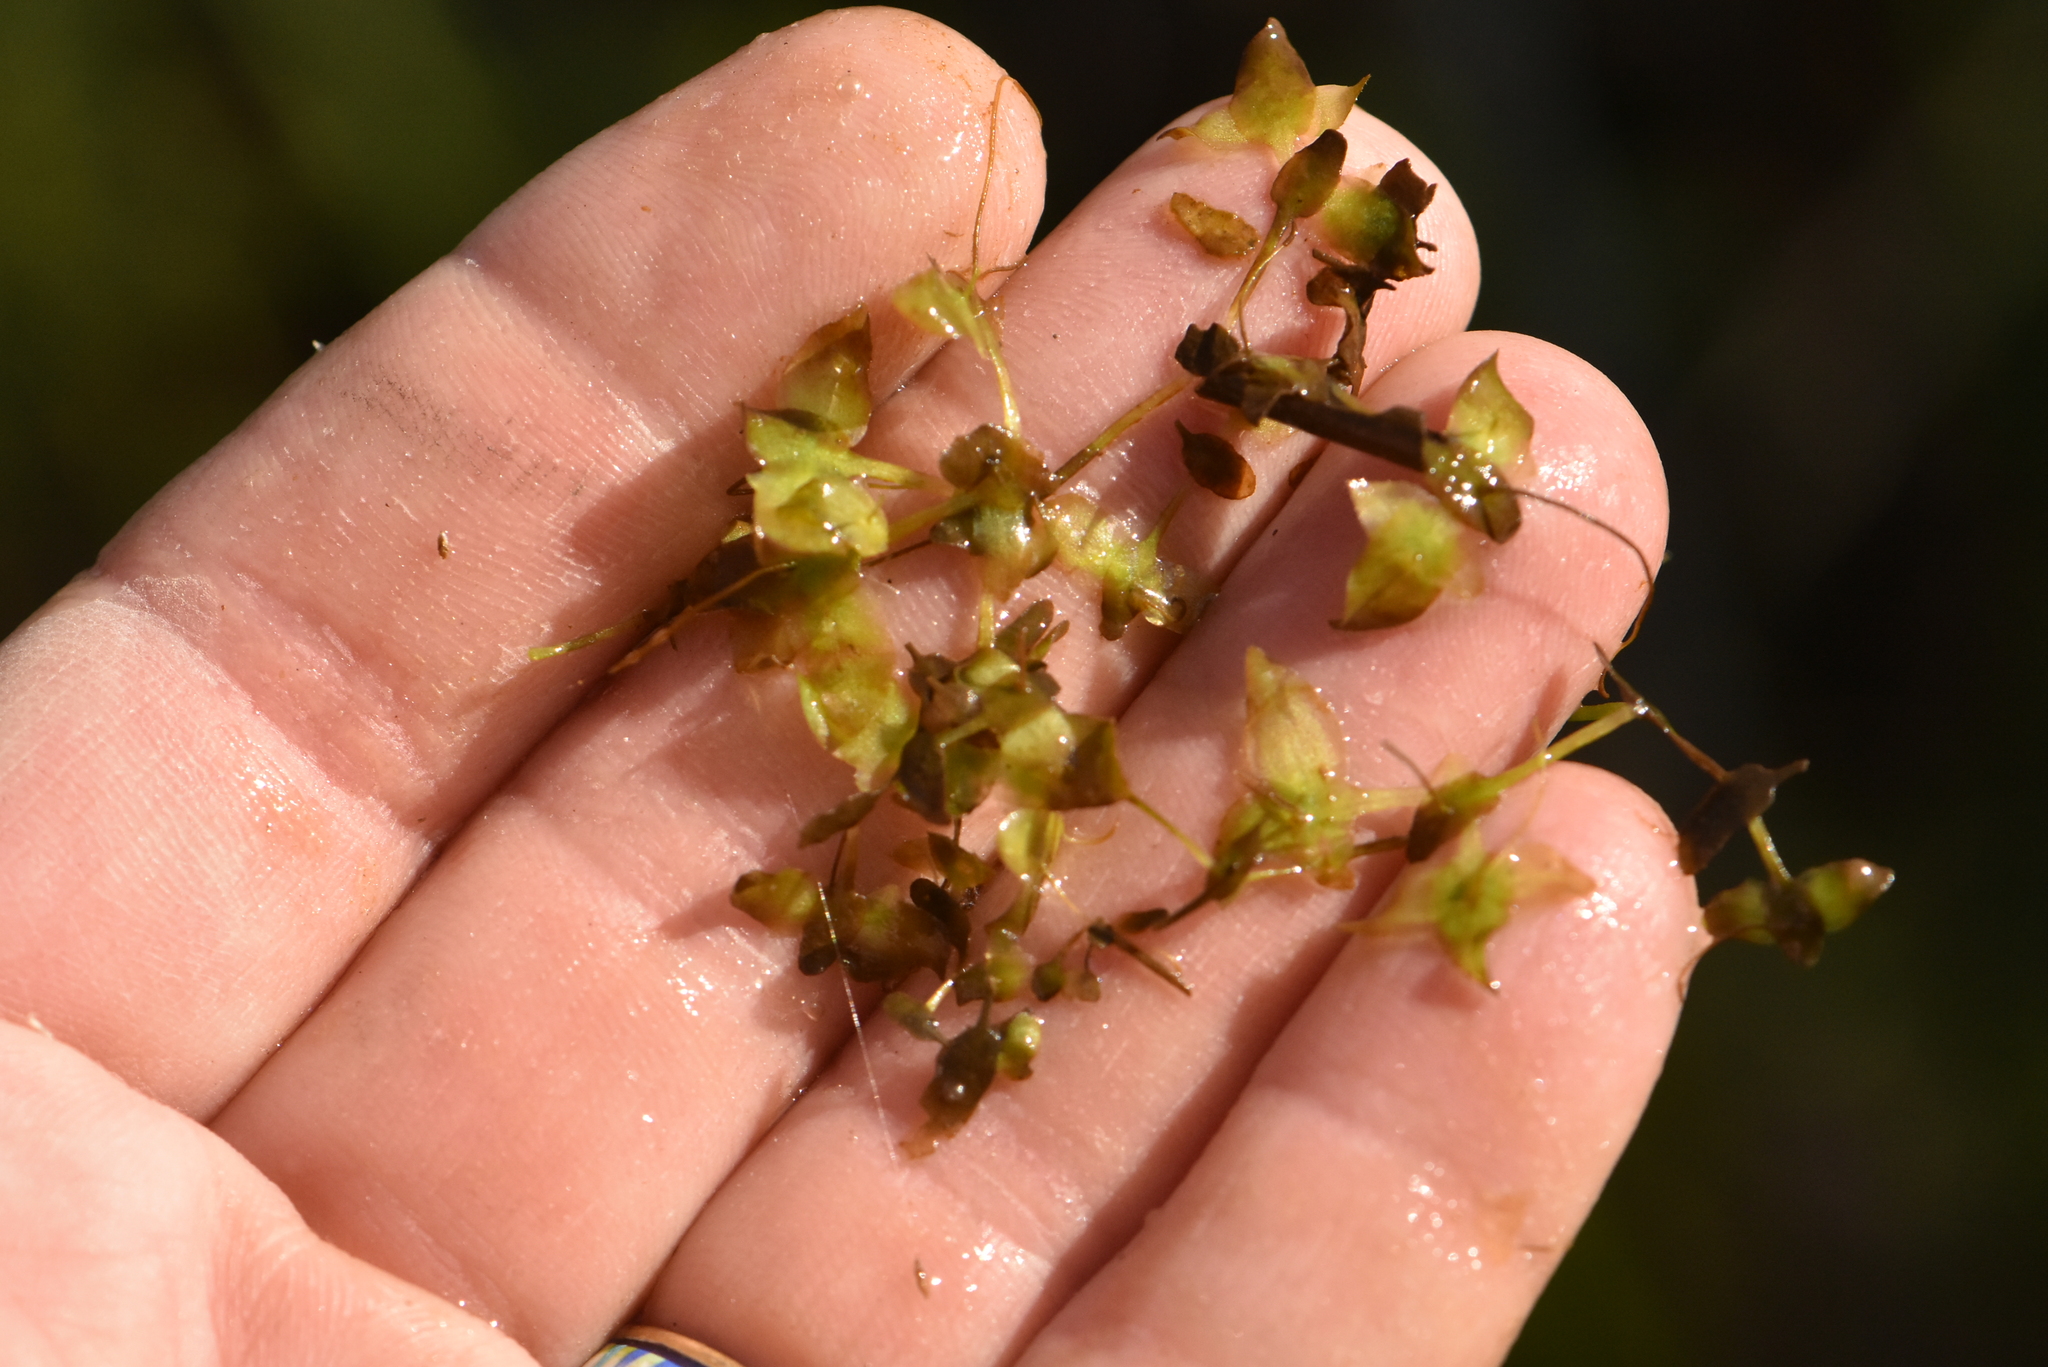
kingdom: Plantae
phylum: Tracheophyta
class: Liliopsida
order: Alismatales
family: Araceae
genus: Lemna
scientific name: Lemna trisulca
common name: Ivy-leaved duckweed
